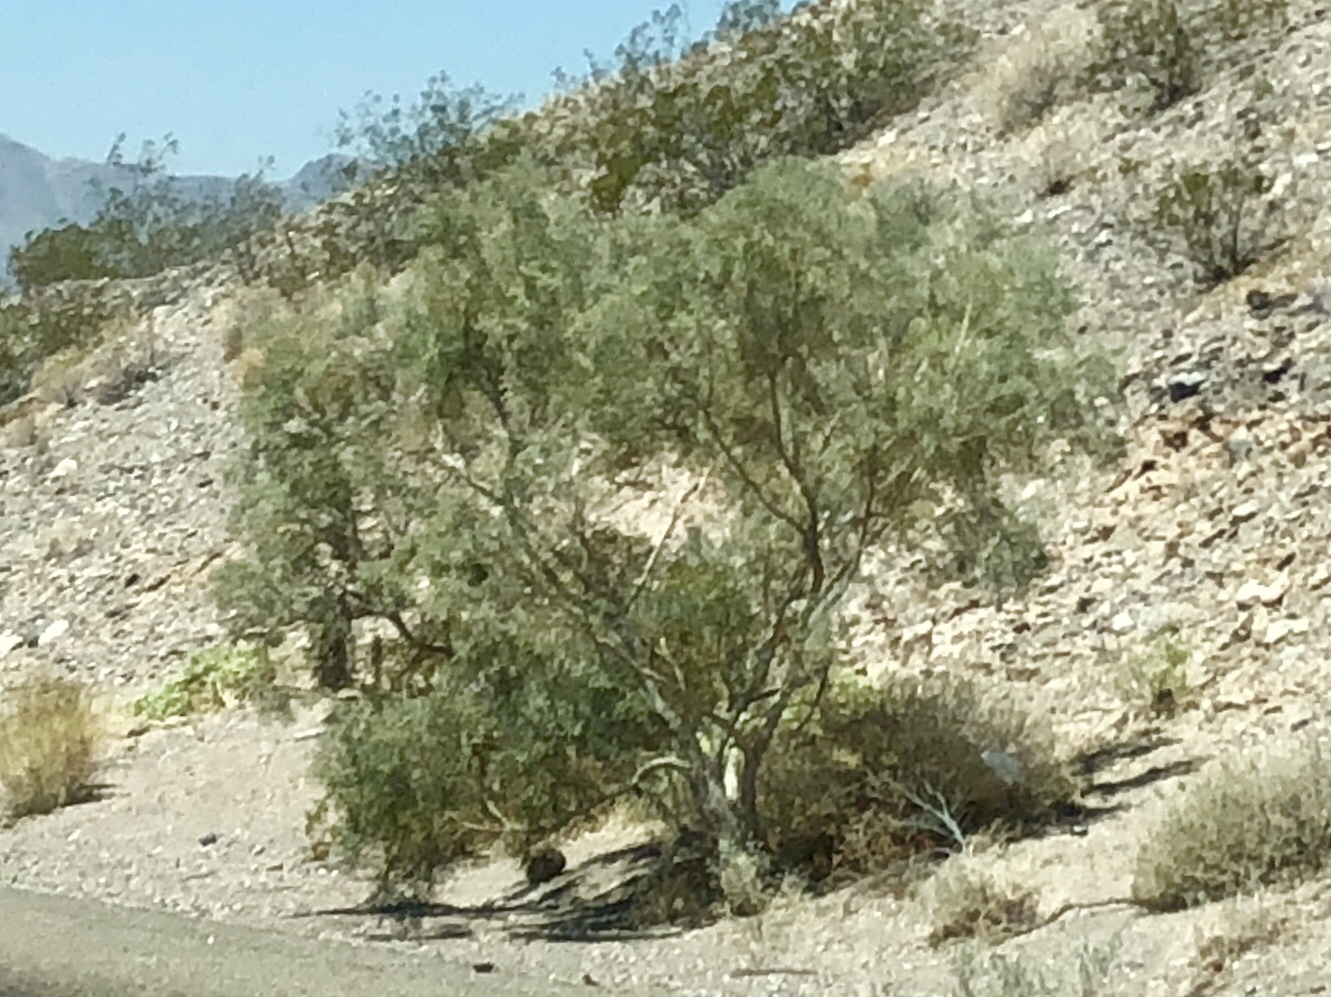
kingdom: Plantae
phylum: Tracheophyta
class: Magnoliopsida
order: Fabales
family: Fabaceae
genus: Psorothamnus
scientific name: Psorothamnus spinosus
